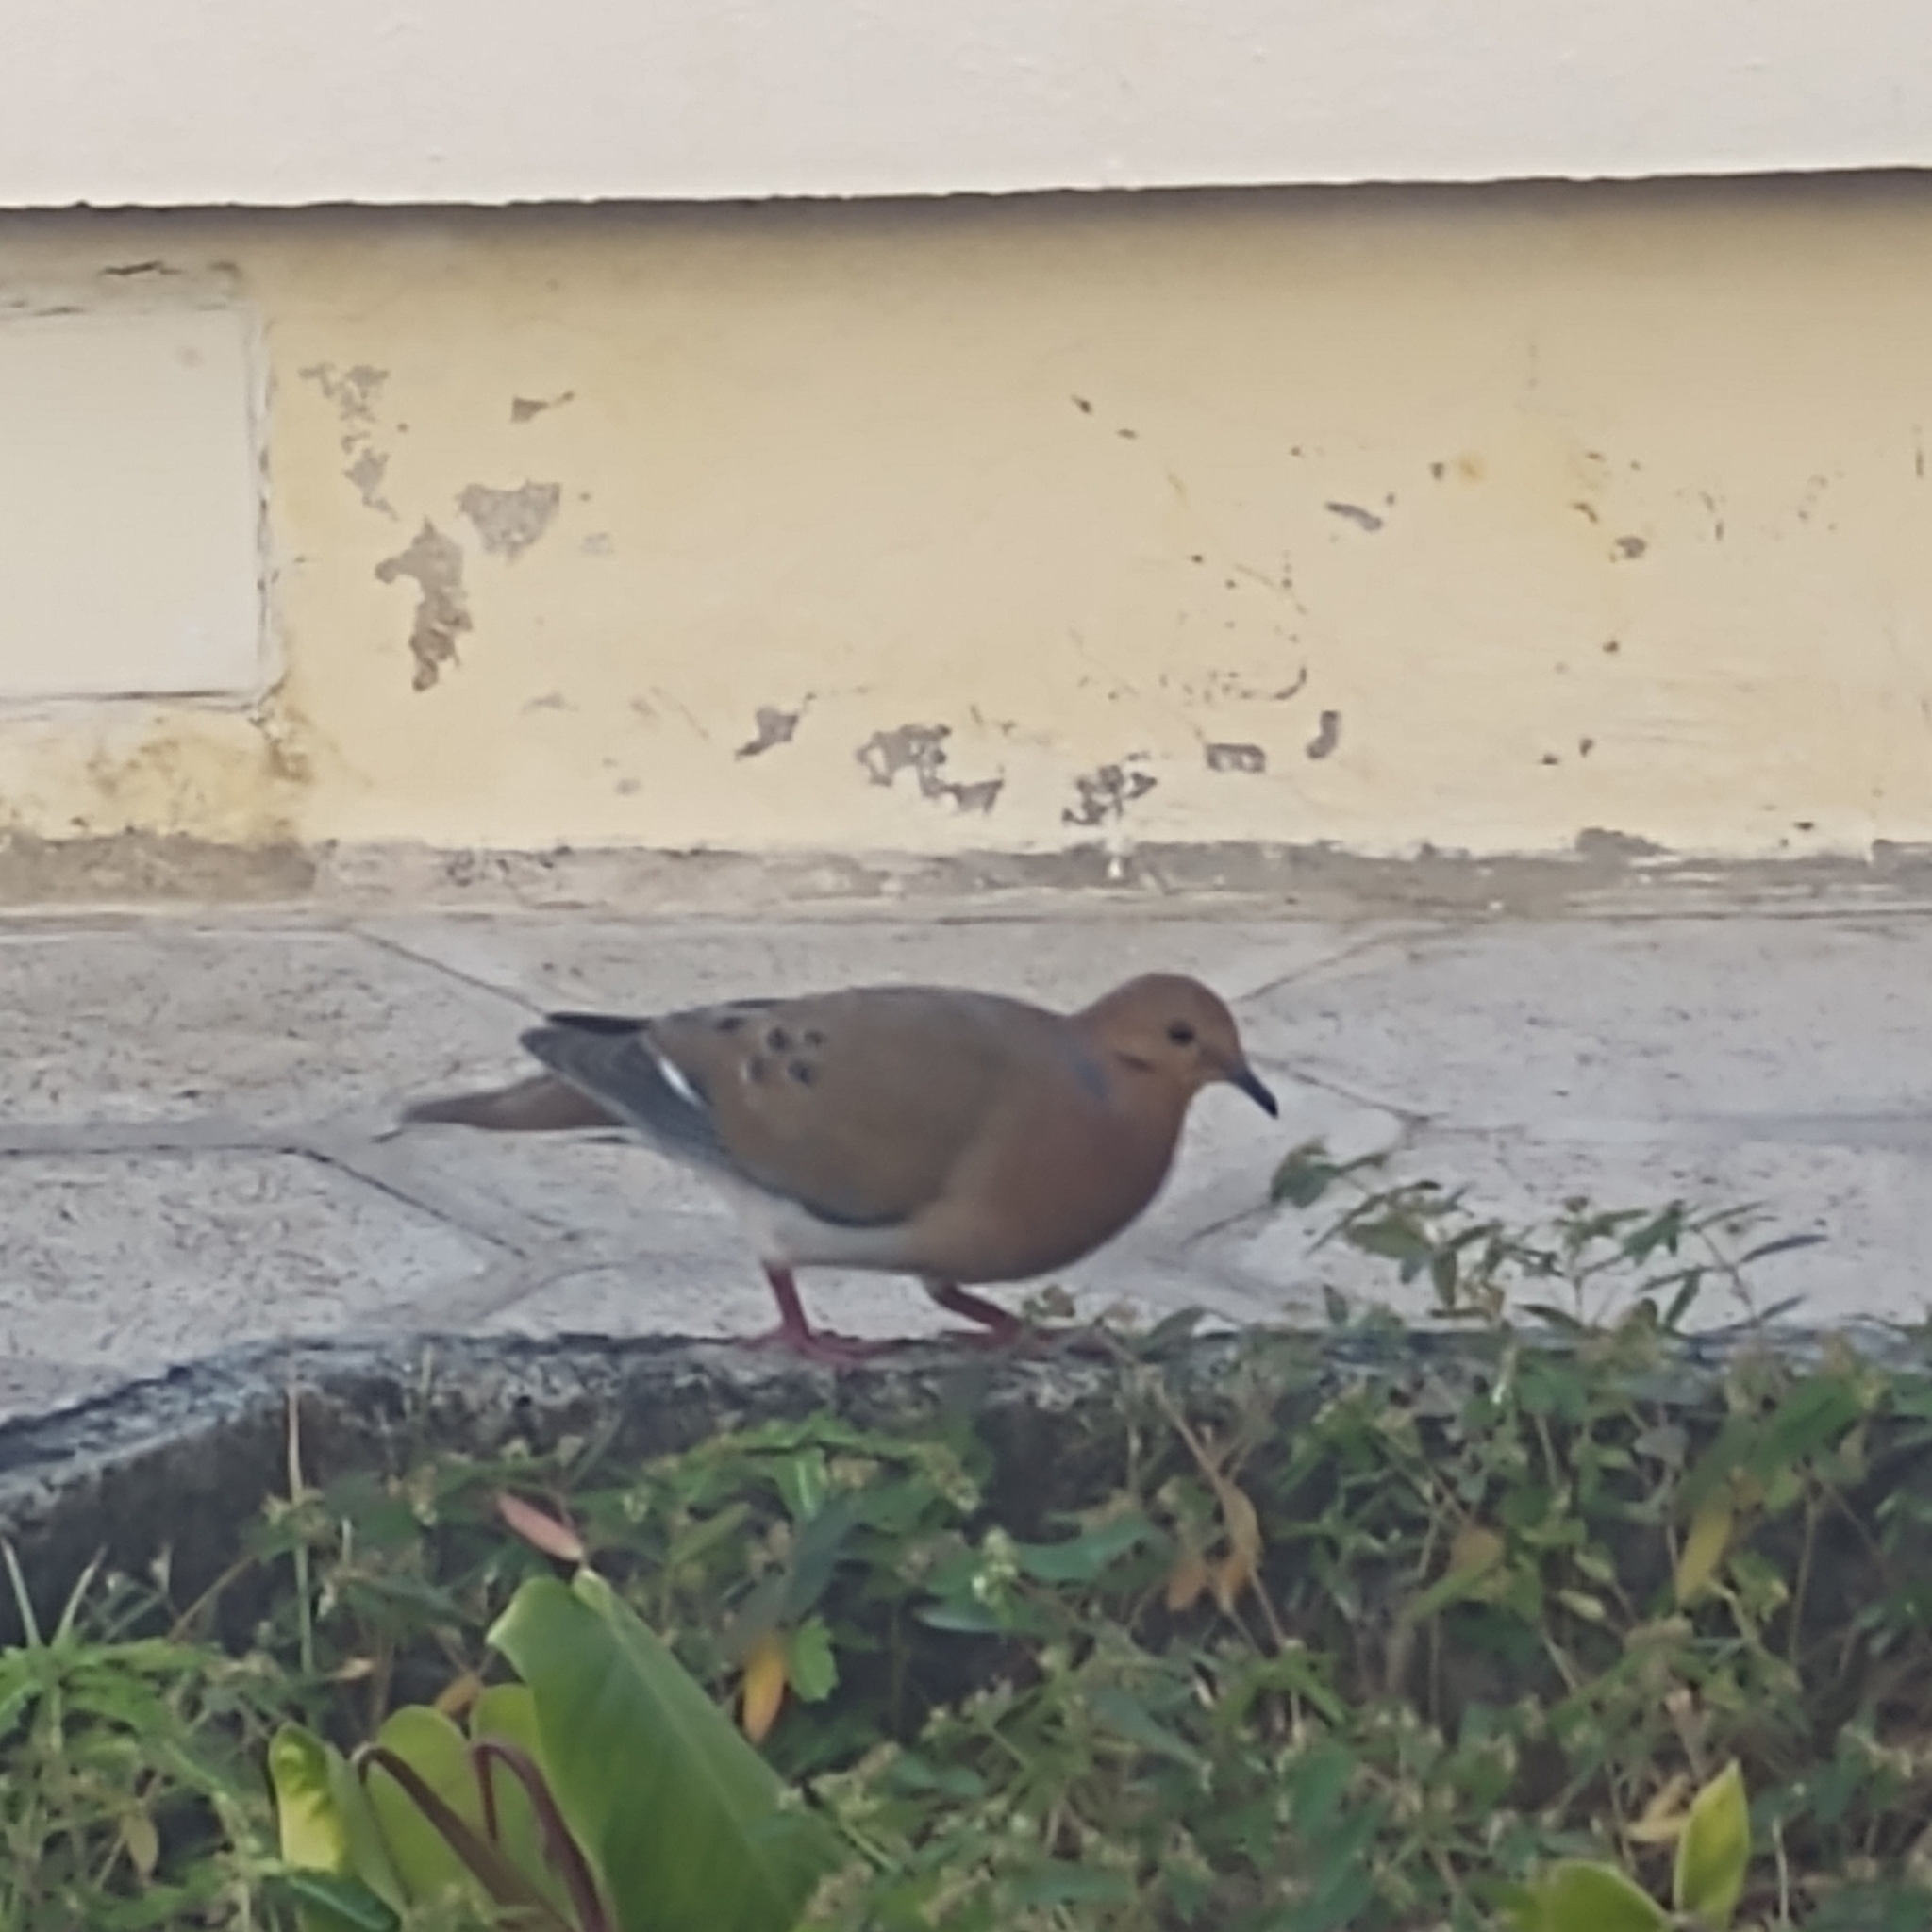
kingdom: Animalia
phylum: Chordata
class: Aves
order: Columbiformes
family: Columbidae
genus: Zenaida
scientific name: Zenaida aurita
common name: Zenaida dove
